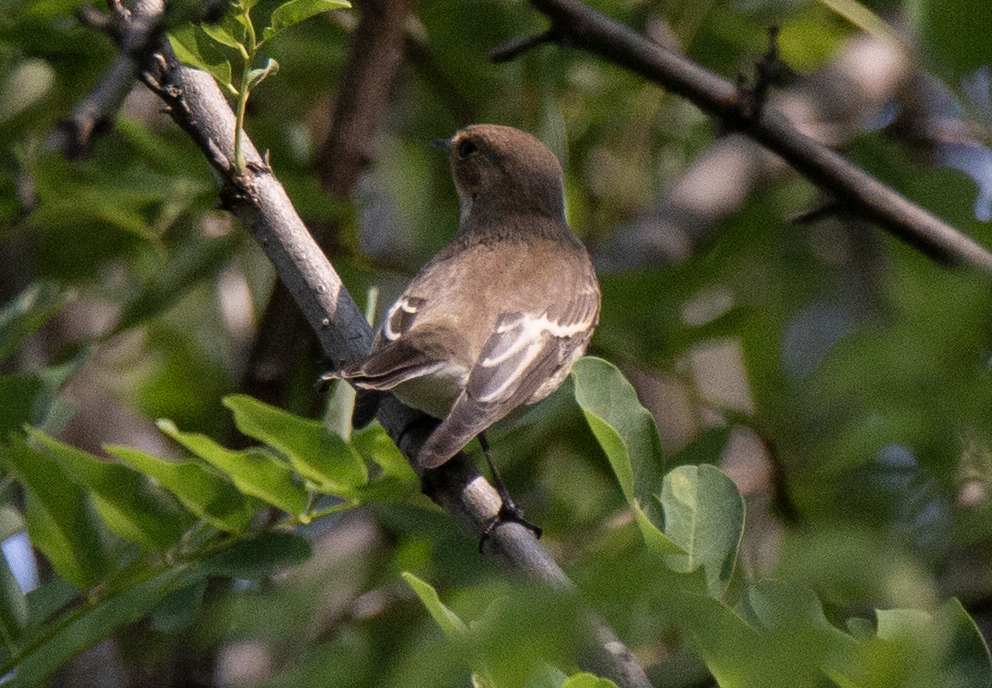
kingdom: Animalia
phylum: Chordata
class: Aves
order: Passeriformes
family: Muscicapidae
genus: Ficedula
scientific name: Ficedula hypoleuca
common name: European pied flycatcher
